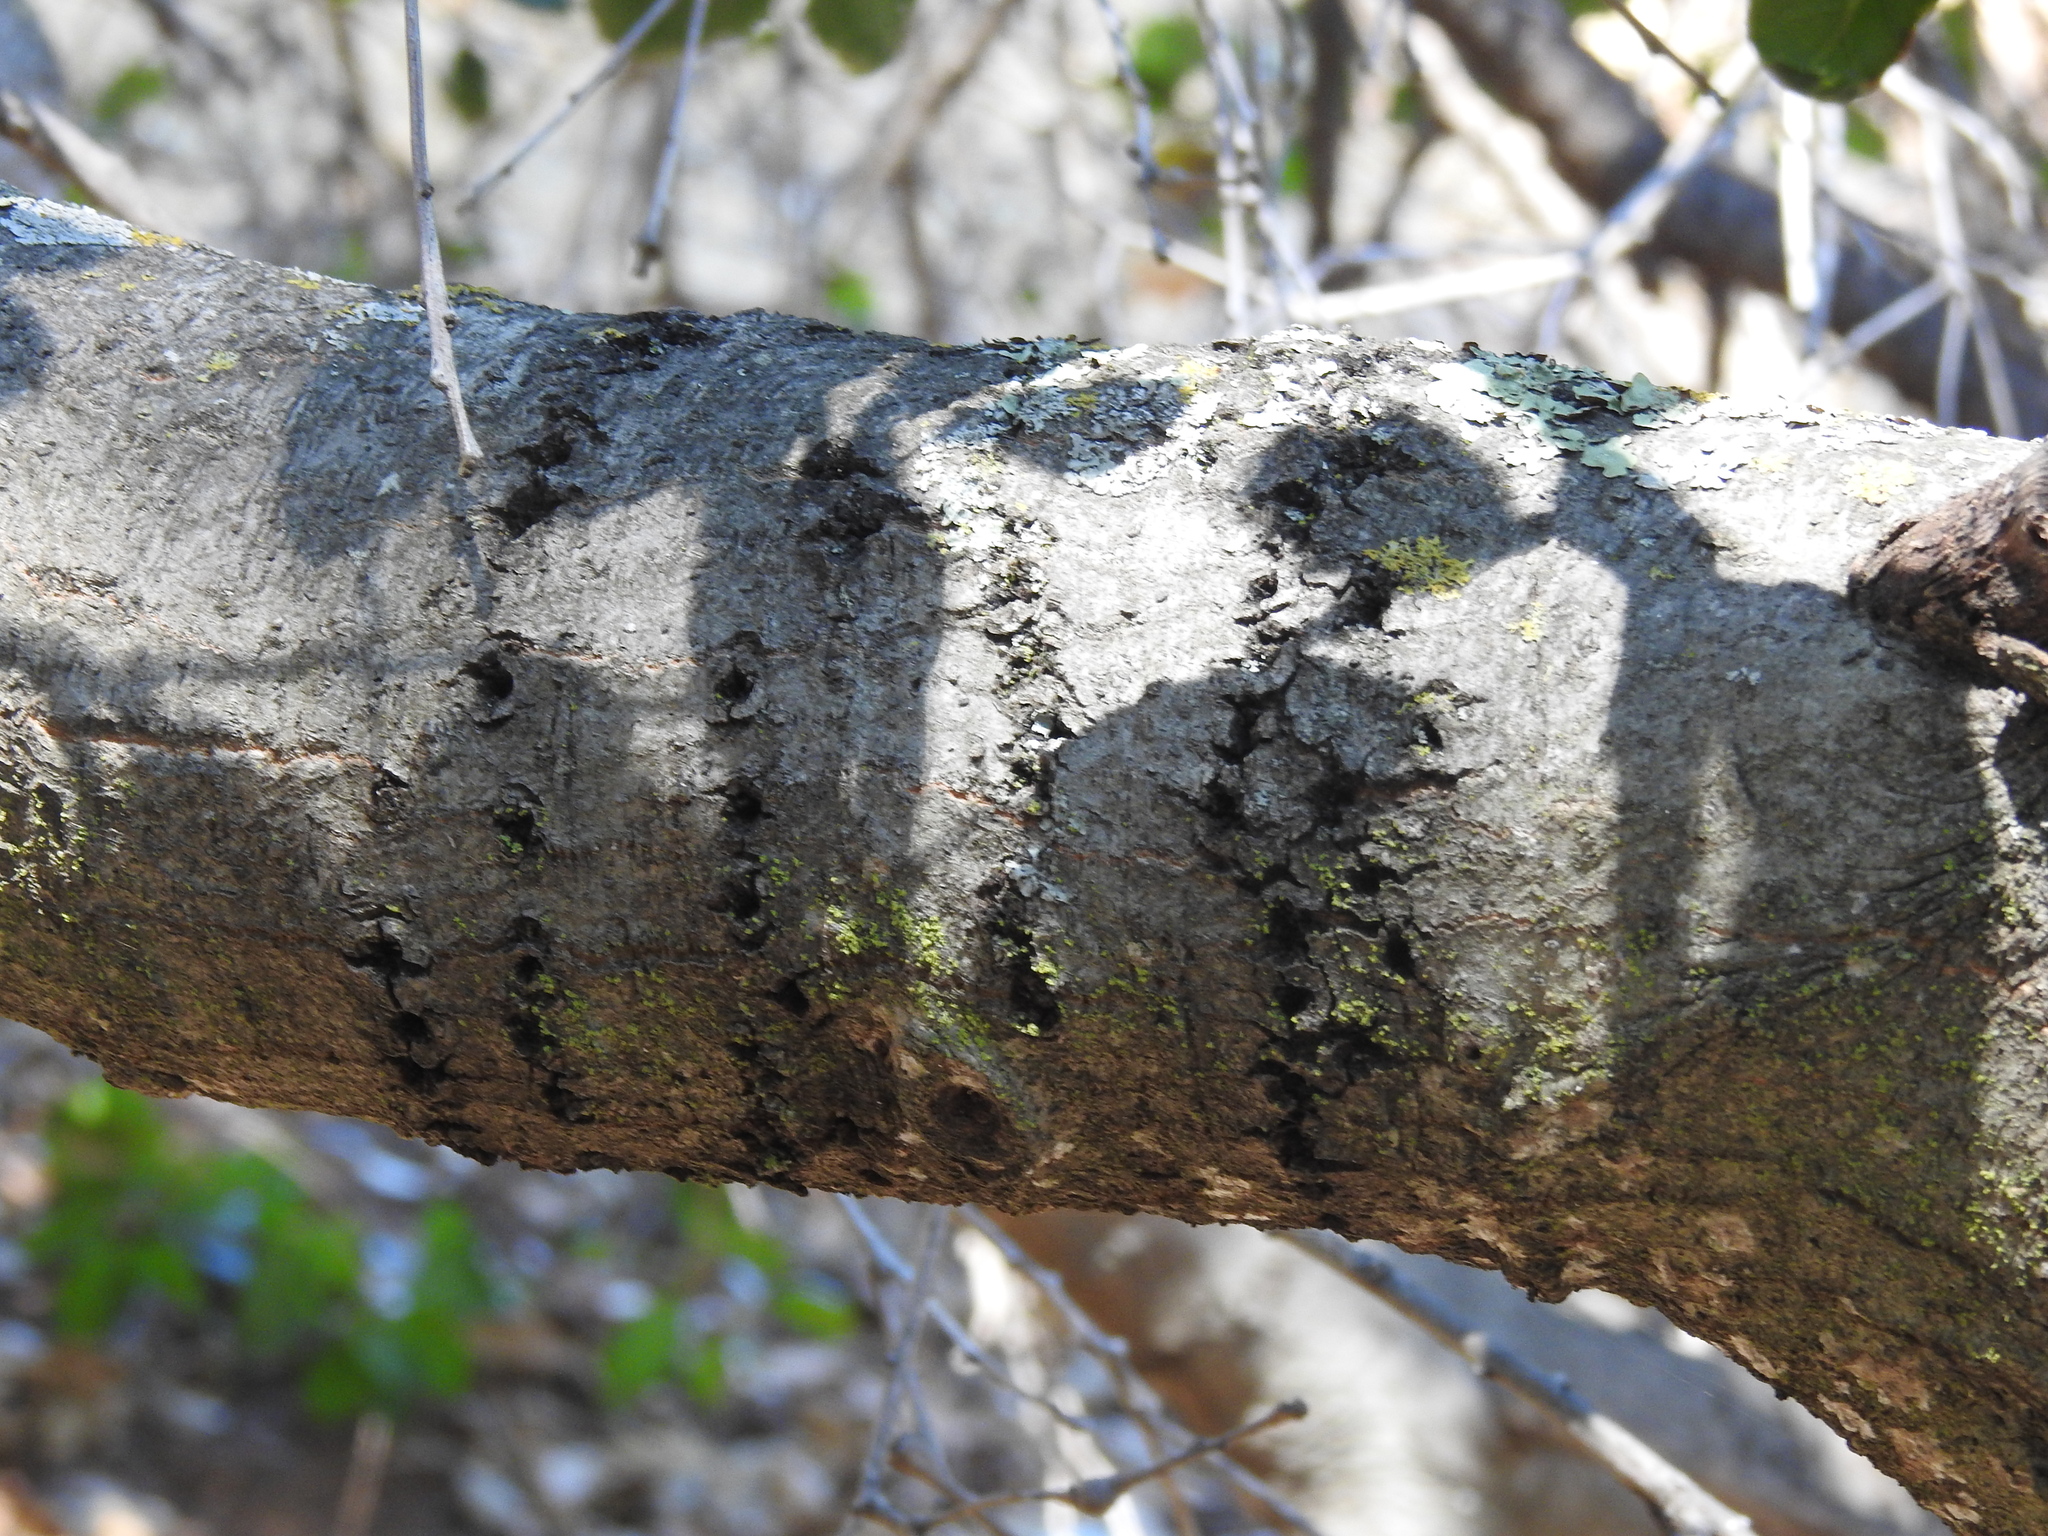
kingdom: Animalia
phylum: Chordata
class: Aves
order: Piciformes
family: Picidae
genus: Sphyrapicus
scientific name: Sphyrapicus
